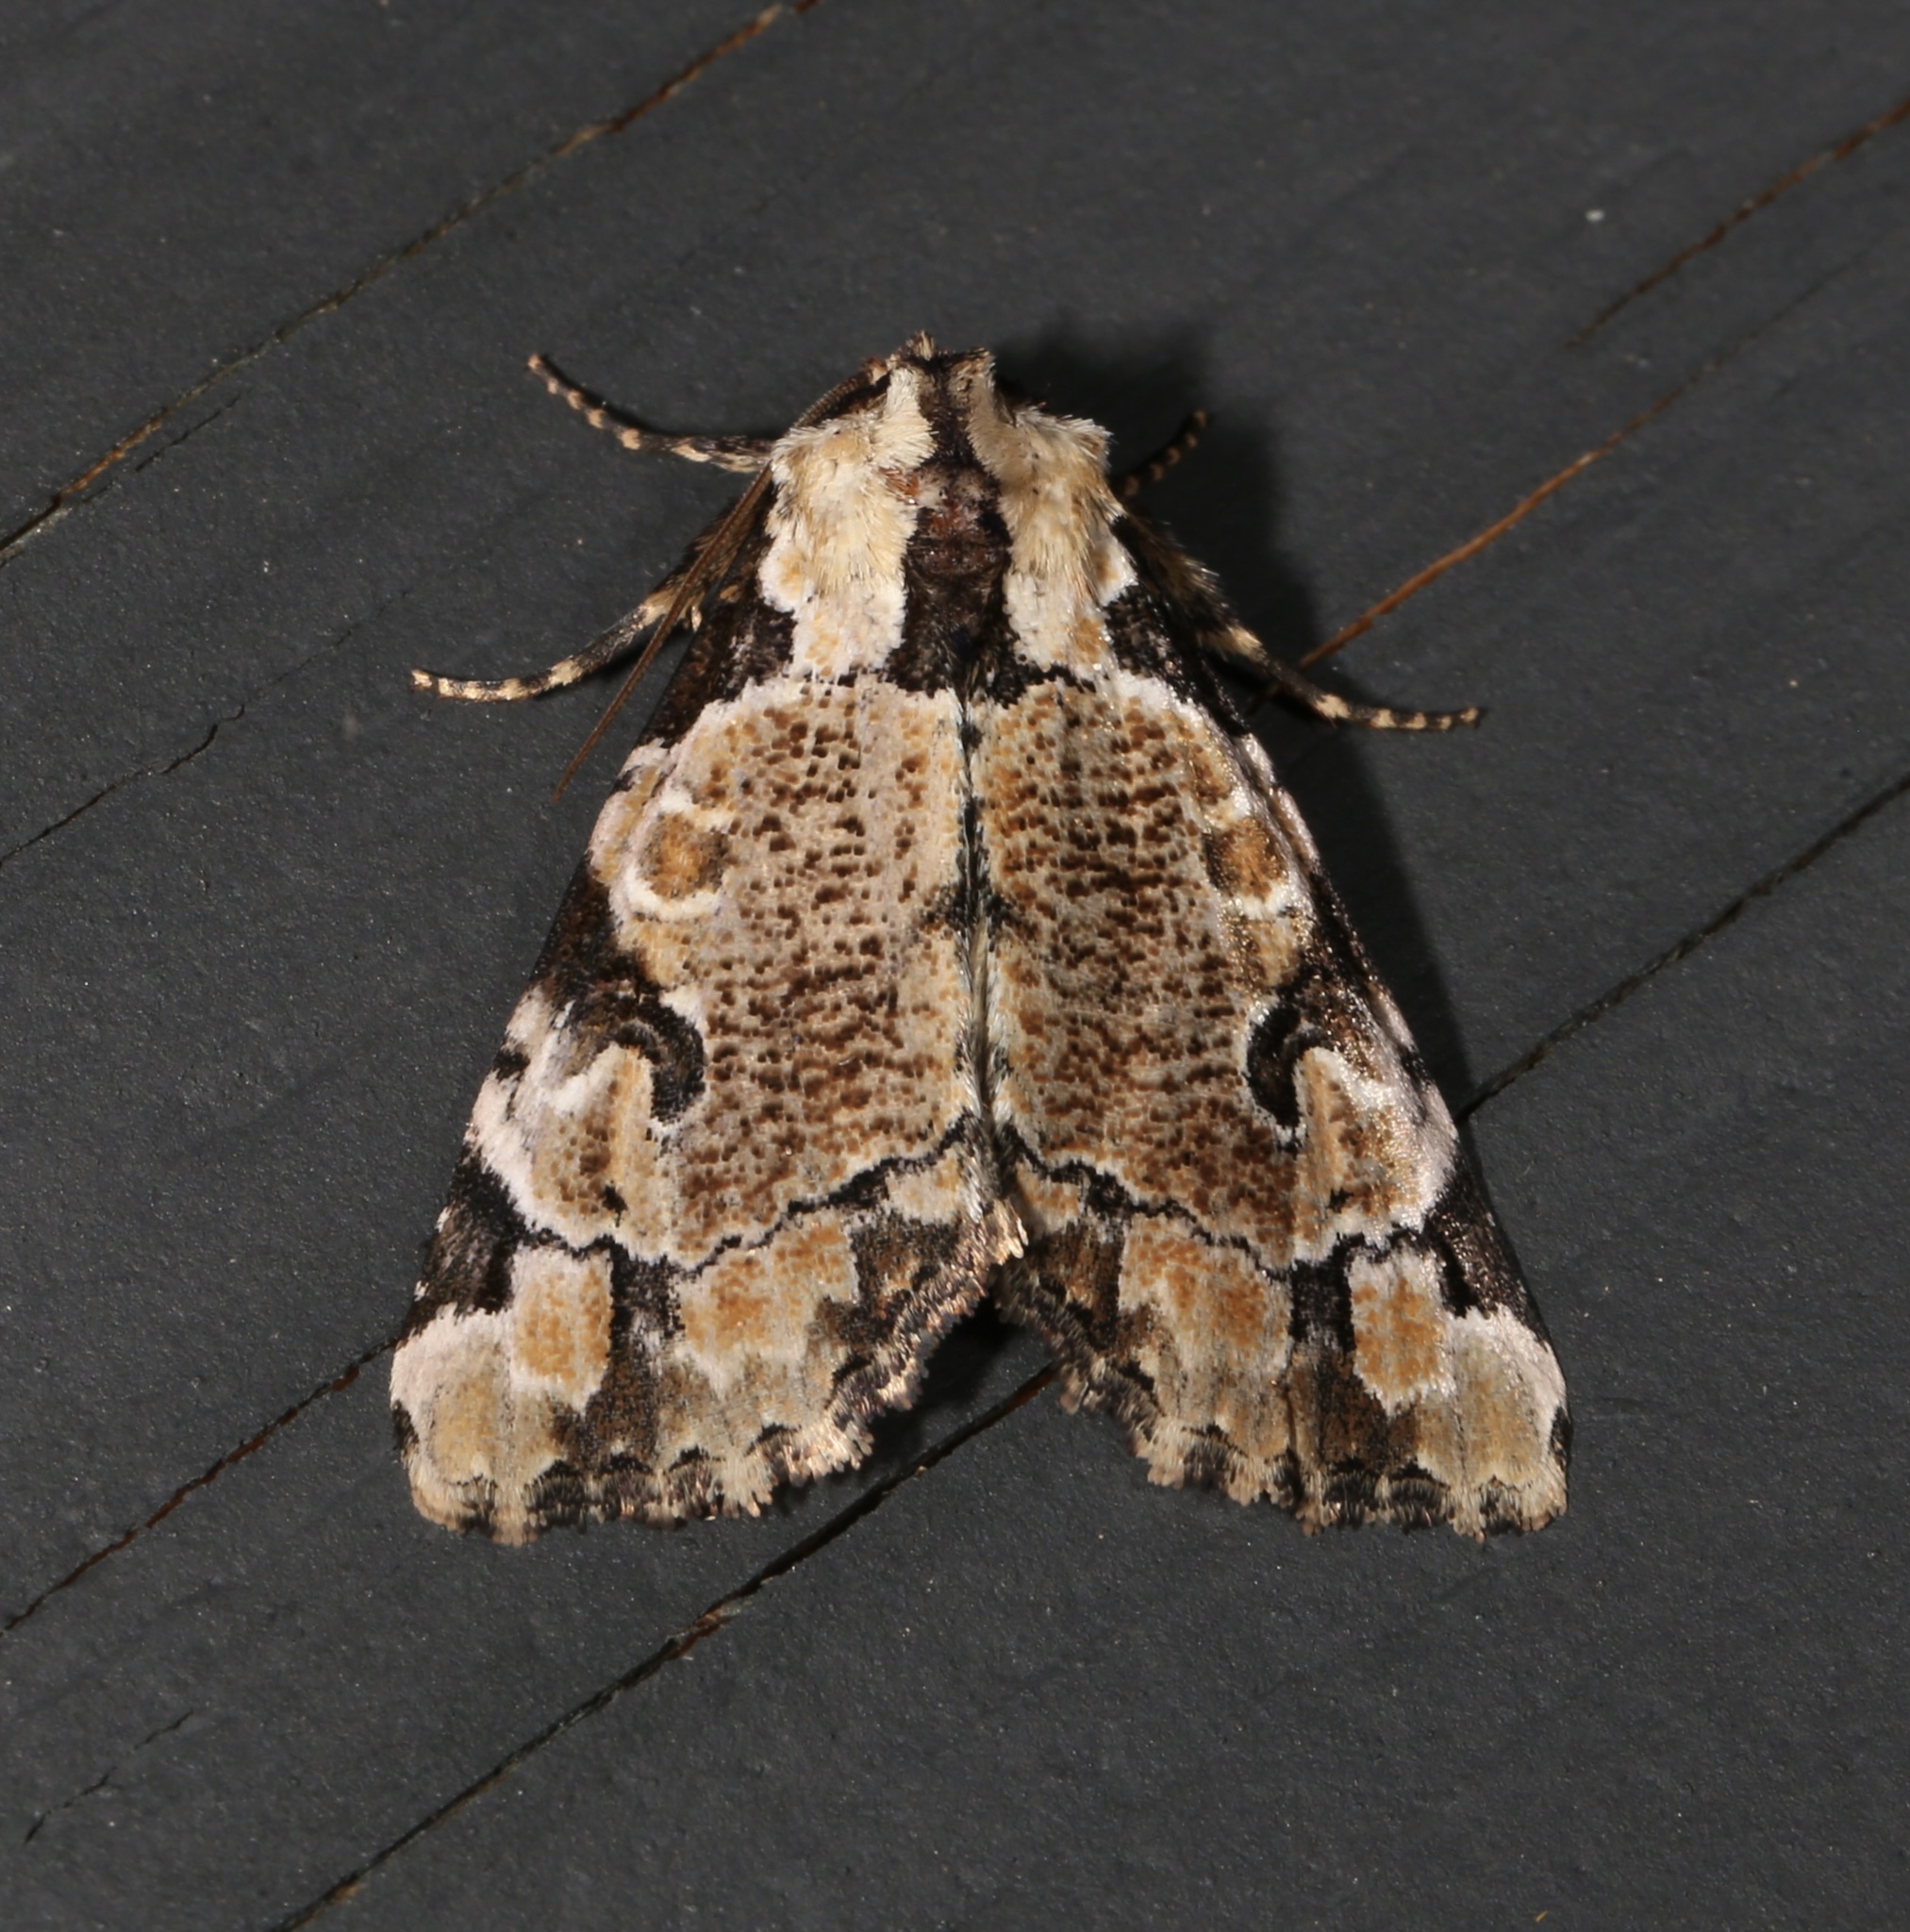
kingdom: Animalia
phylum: Arthropoda
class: Insecta
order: Lepidoptera
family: Noctuidae
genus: Stibaera
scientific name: Stibaera thyatiroides
